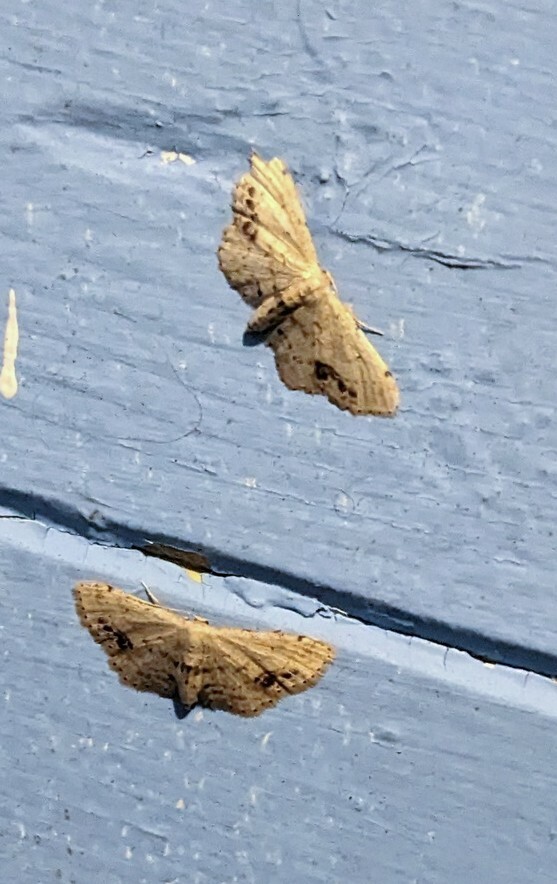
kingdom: Animalia
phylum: Arthropoda
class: Insecta
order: Lepidoptera
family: Geometridae
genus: Idaea
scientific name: Idaea dimidiata
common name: Single-dotted wave
